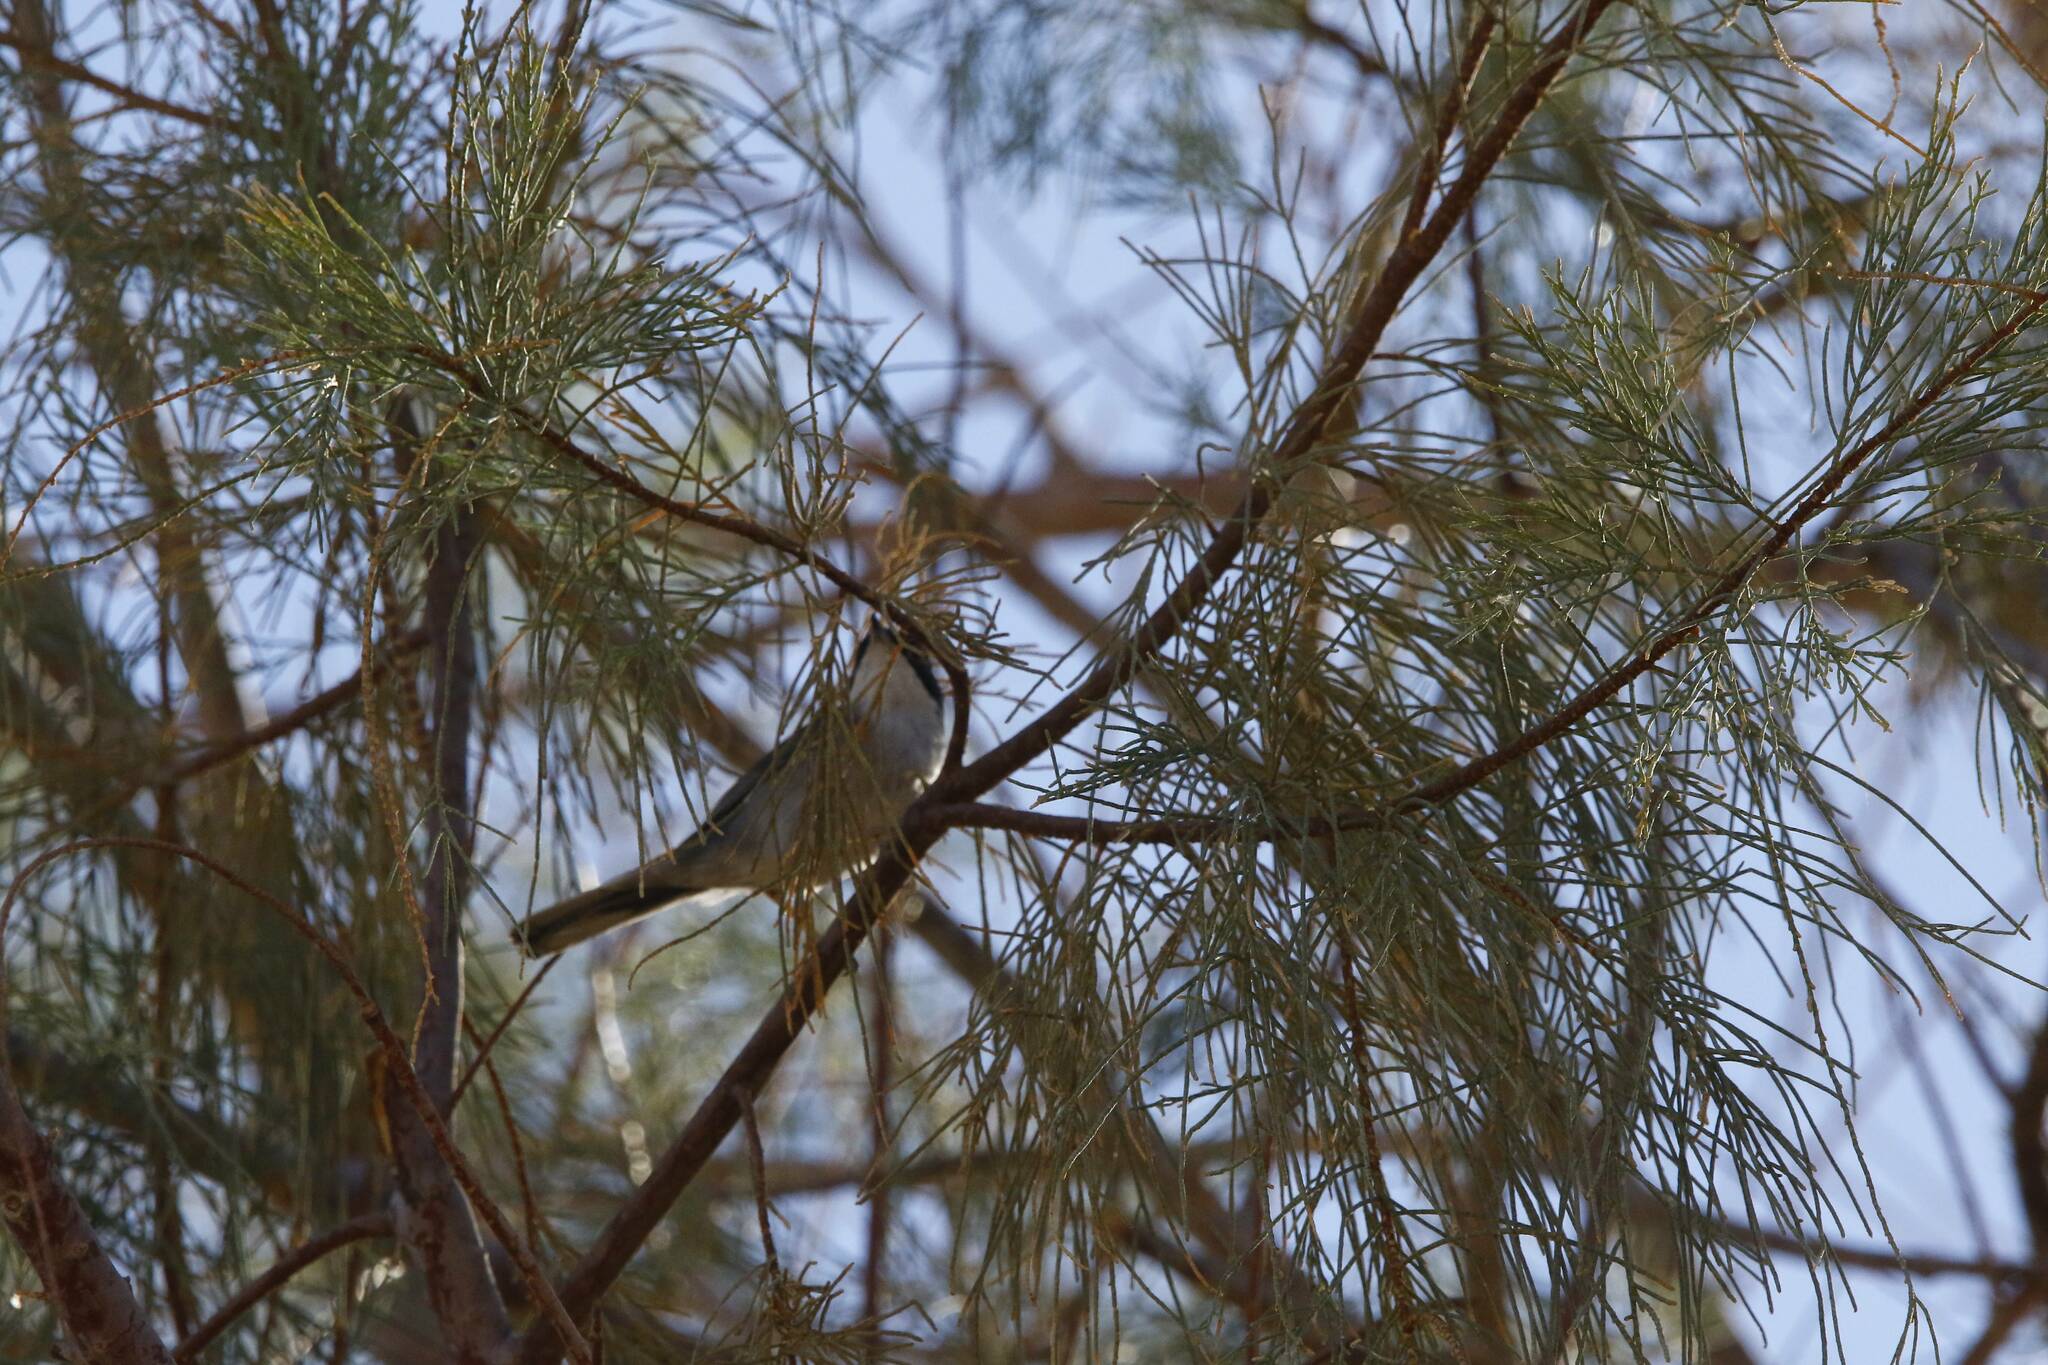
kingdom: Animalia
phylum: Chordata
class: Aves
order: Passeriformes
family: Sylviidae
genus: Curruca
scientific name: Curruca melanocephala
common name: Sardinian warbler
